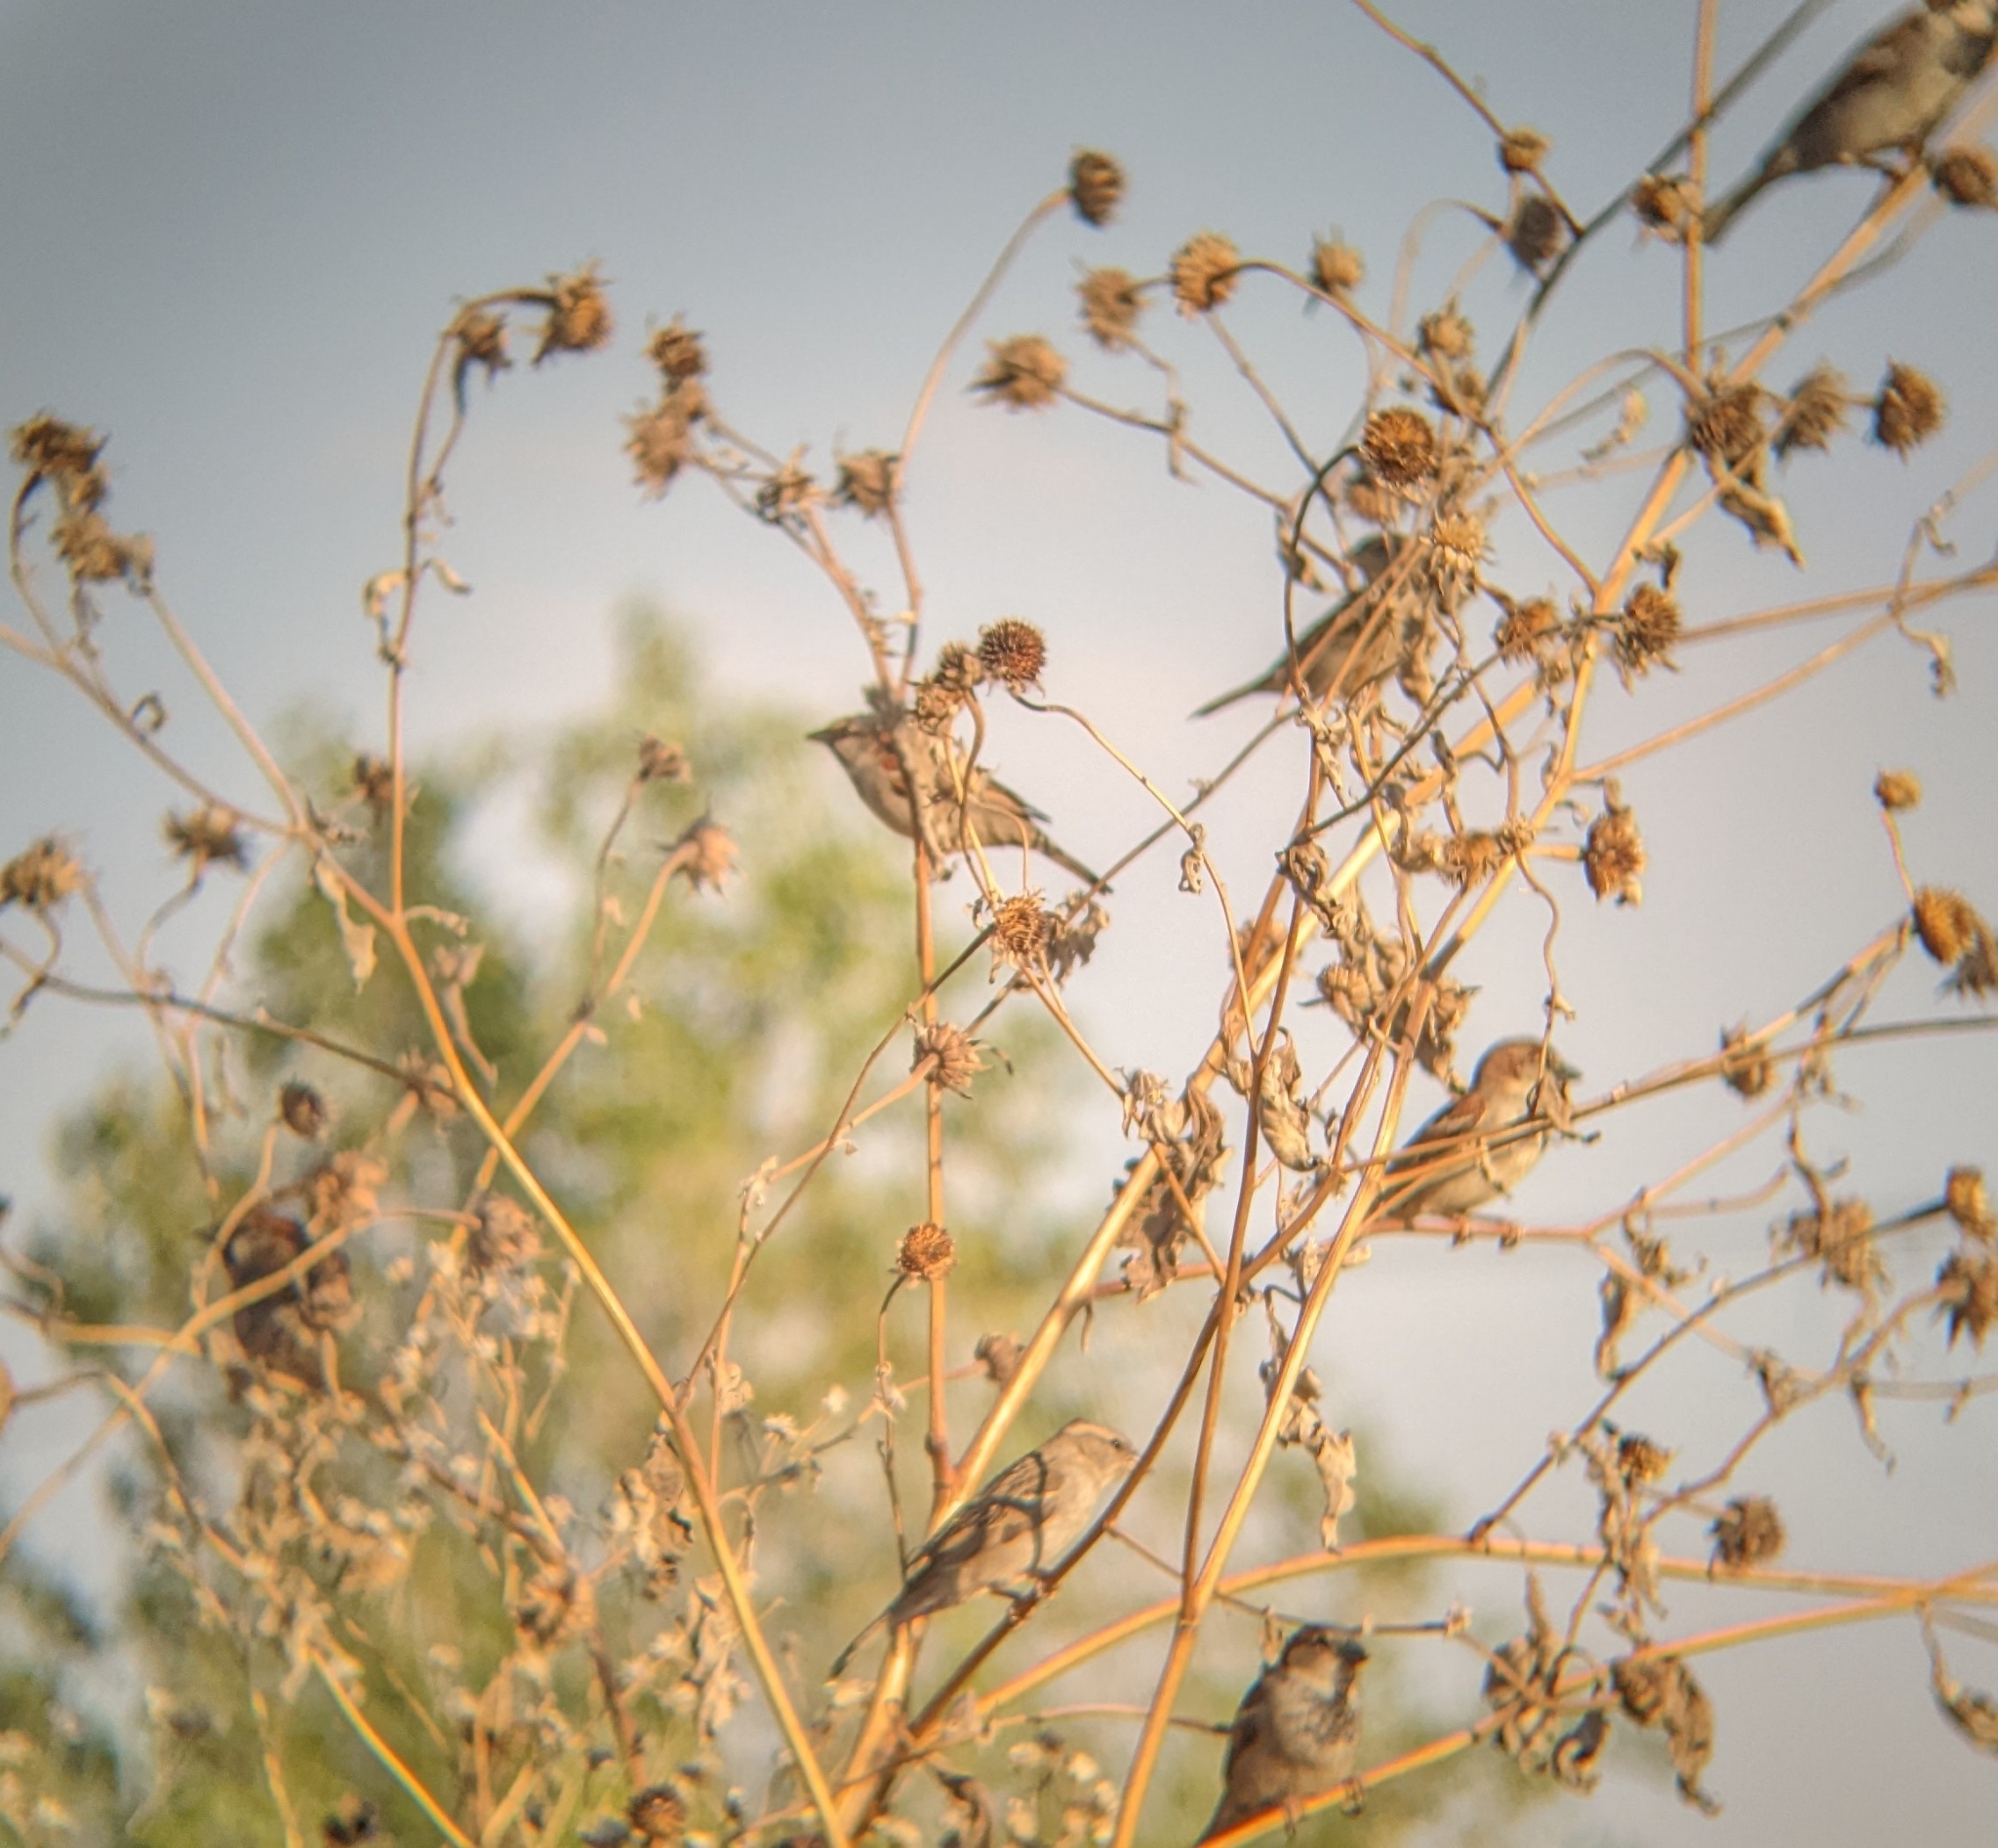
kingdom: Animalia
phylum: Chordata
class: Aves
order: Passeriformes
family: Passeridae
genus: Passer
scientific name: Passer domesticus
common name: House sparrow
